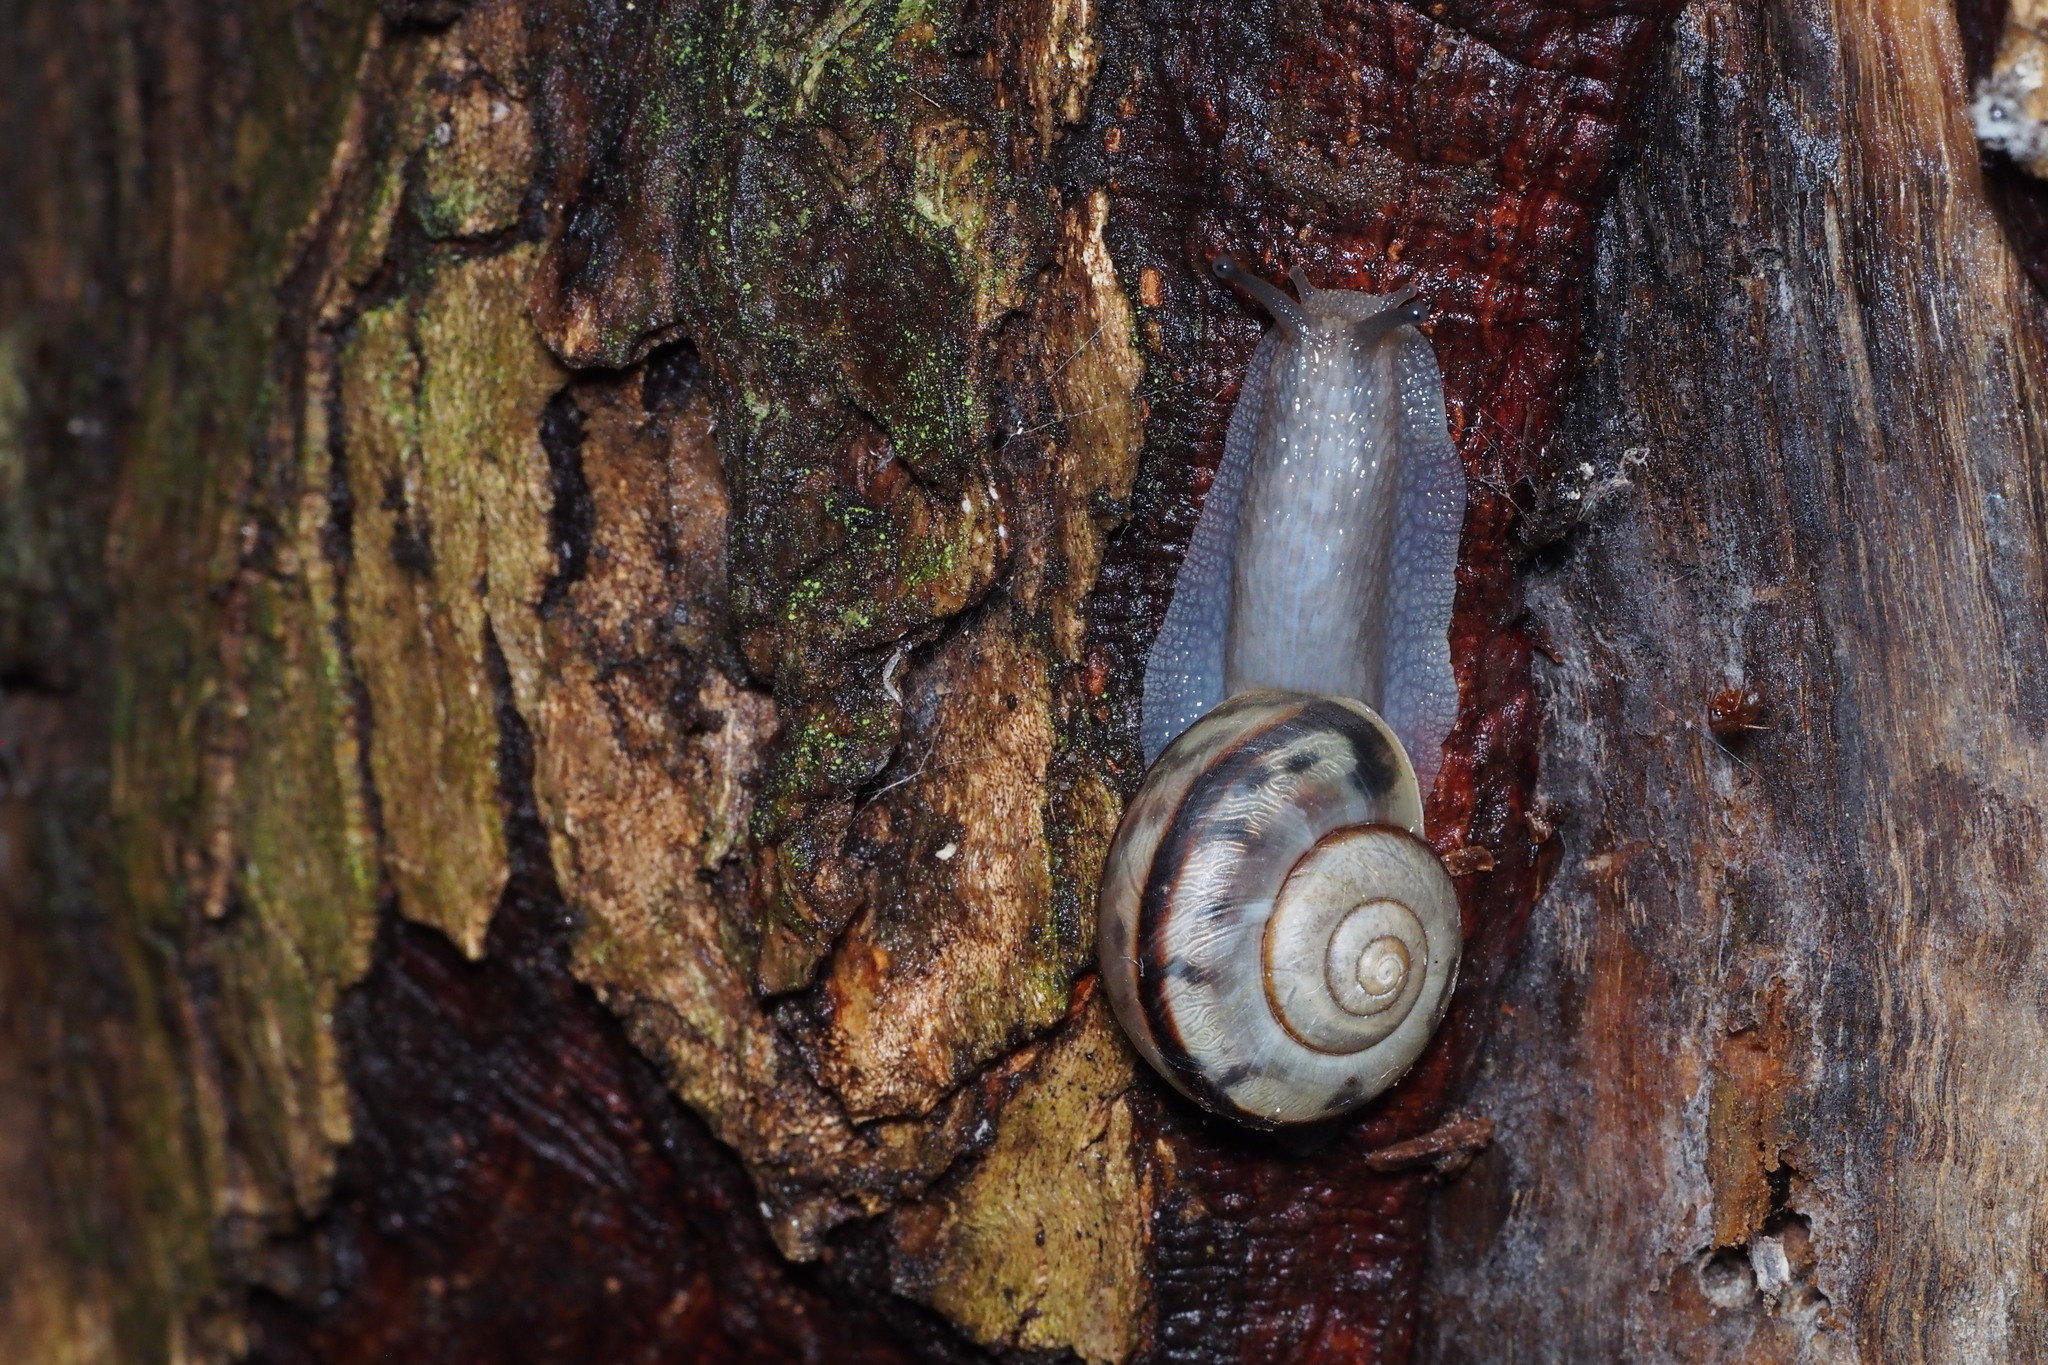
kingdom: Animalia
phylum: Mollusca
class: Gastropoda
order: Stylommatophora
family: Camaenidae
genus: Euhadra
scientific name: Euhadra amaliae
